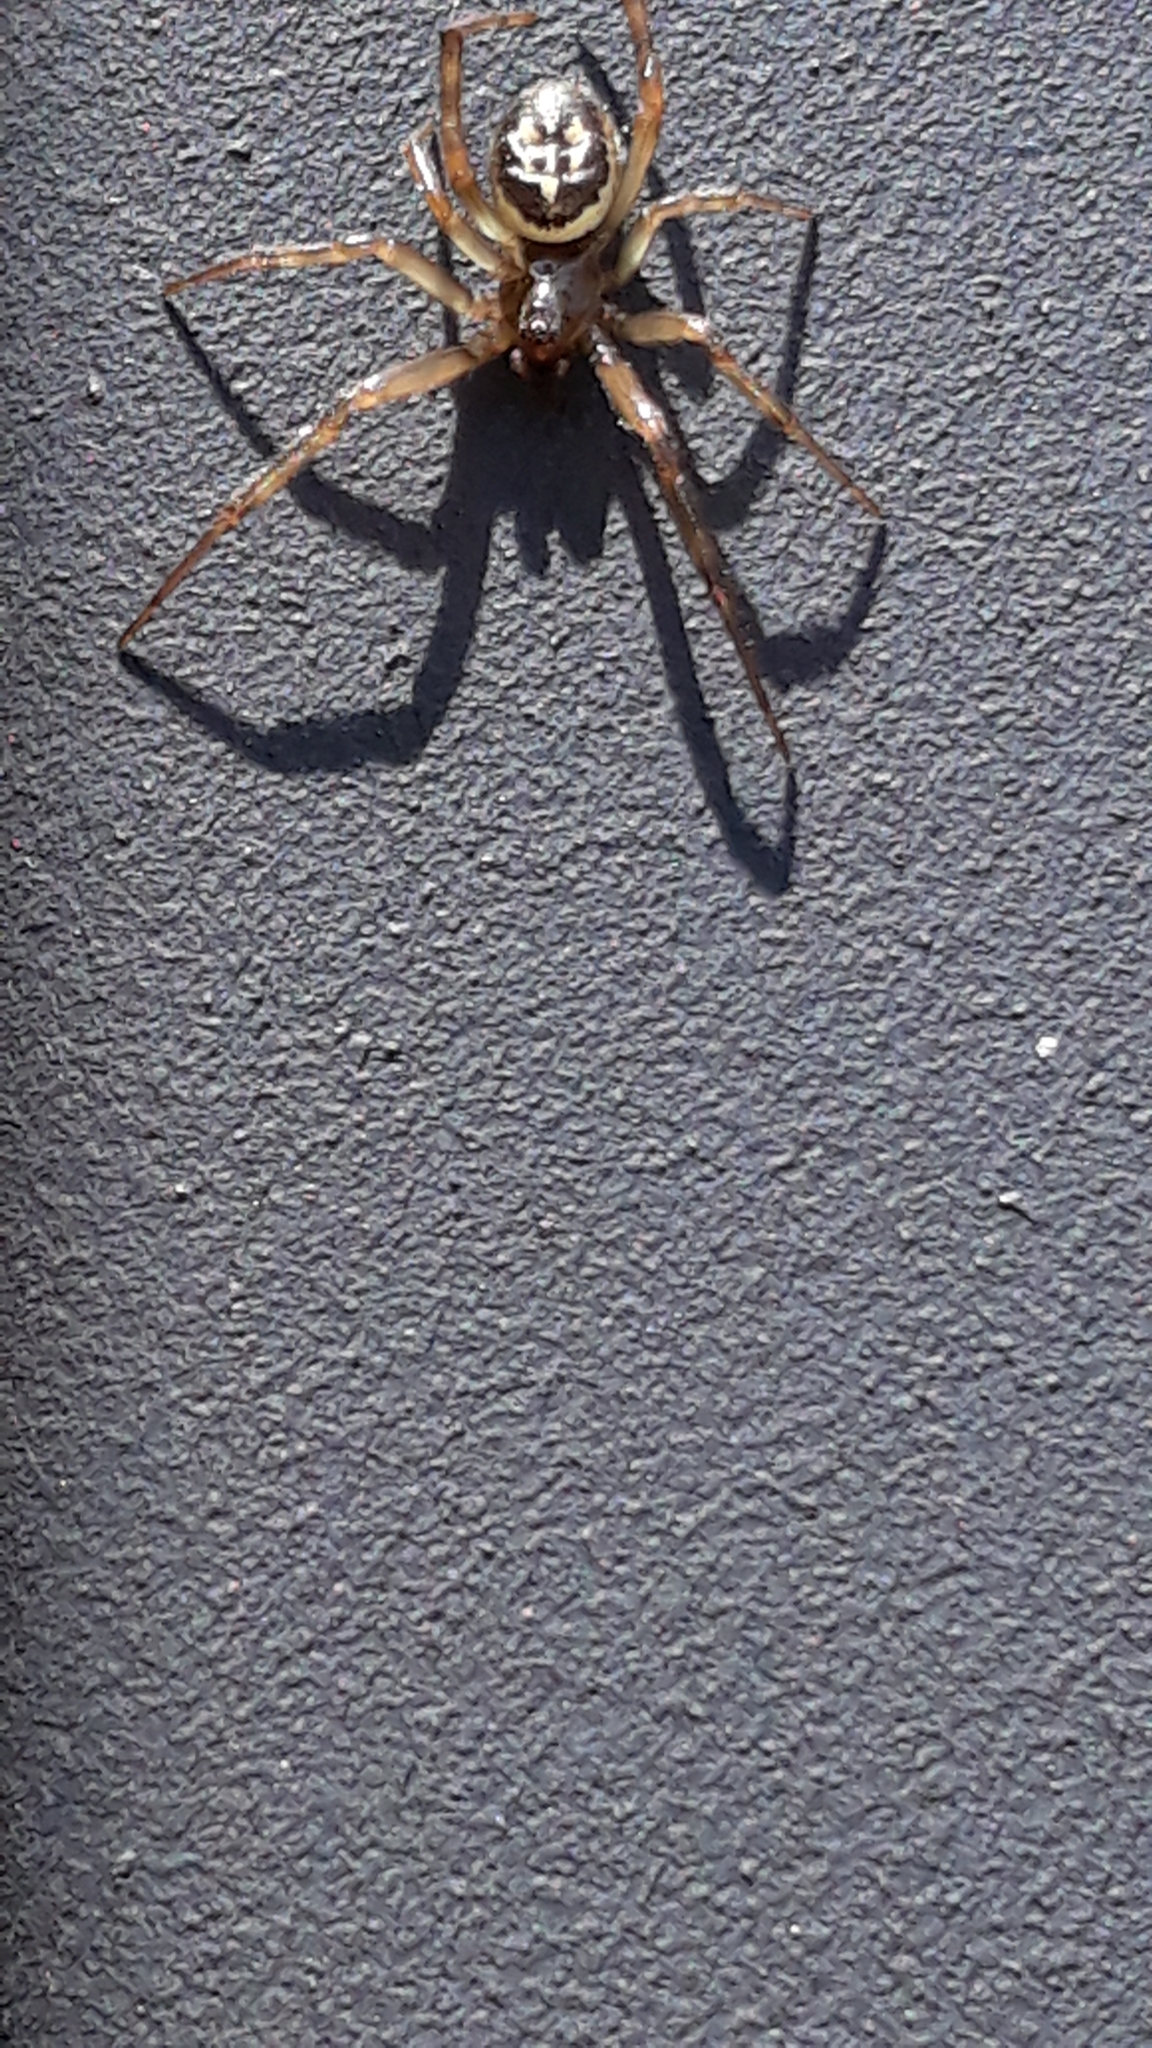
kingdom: Animalia
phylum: Arthropoda
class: Arachnida
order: Araneae
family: Theridiidae
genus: Steatoda
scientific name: Steatoda nobilis
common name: Cobweb weaver
